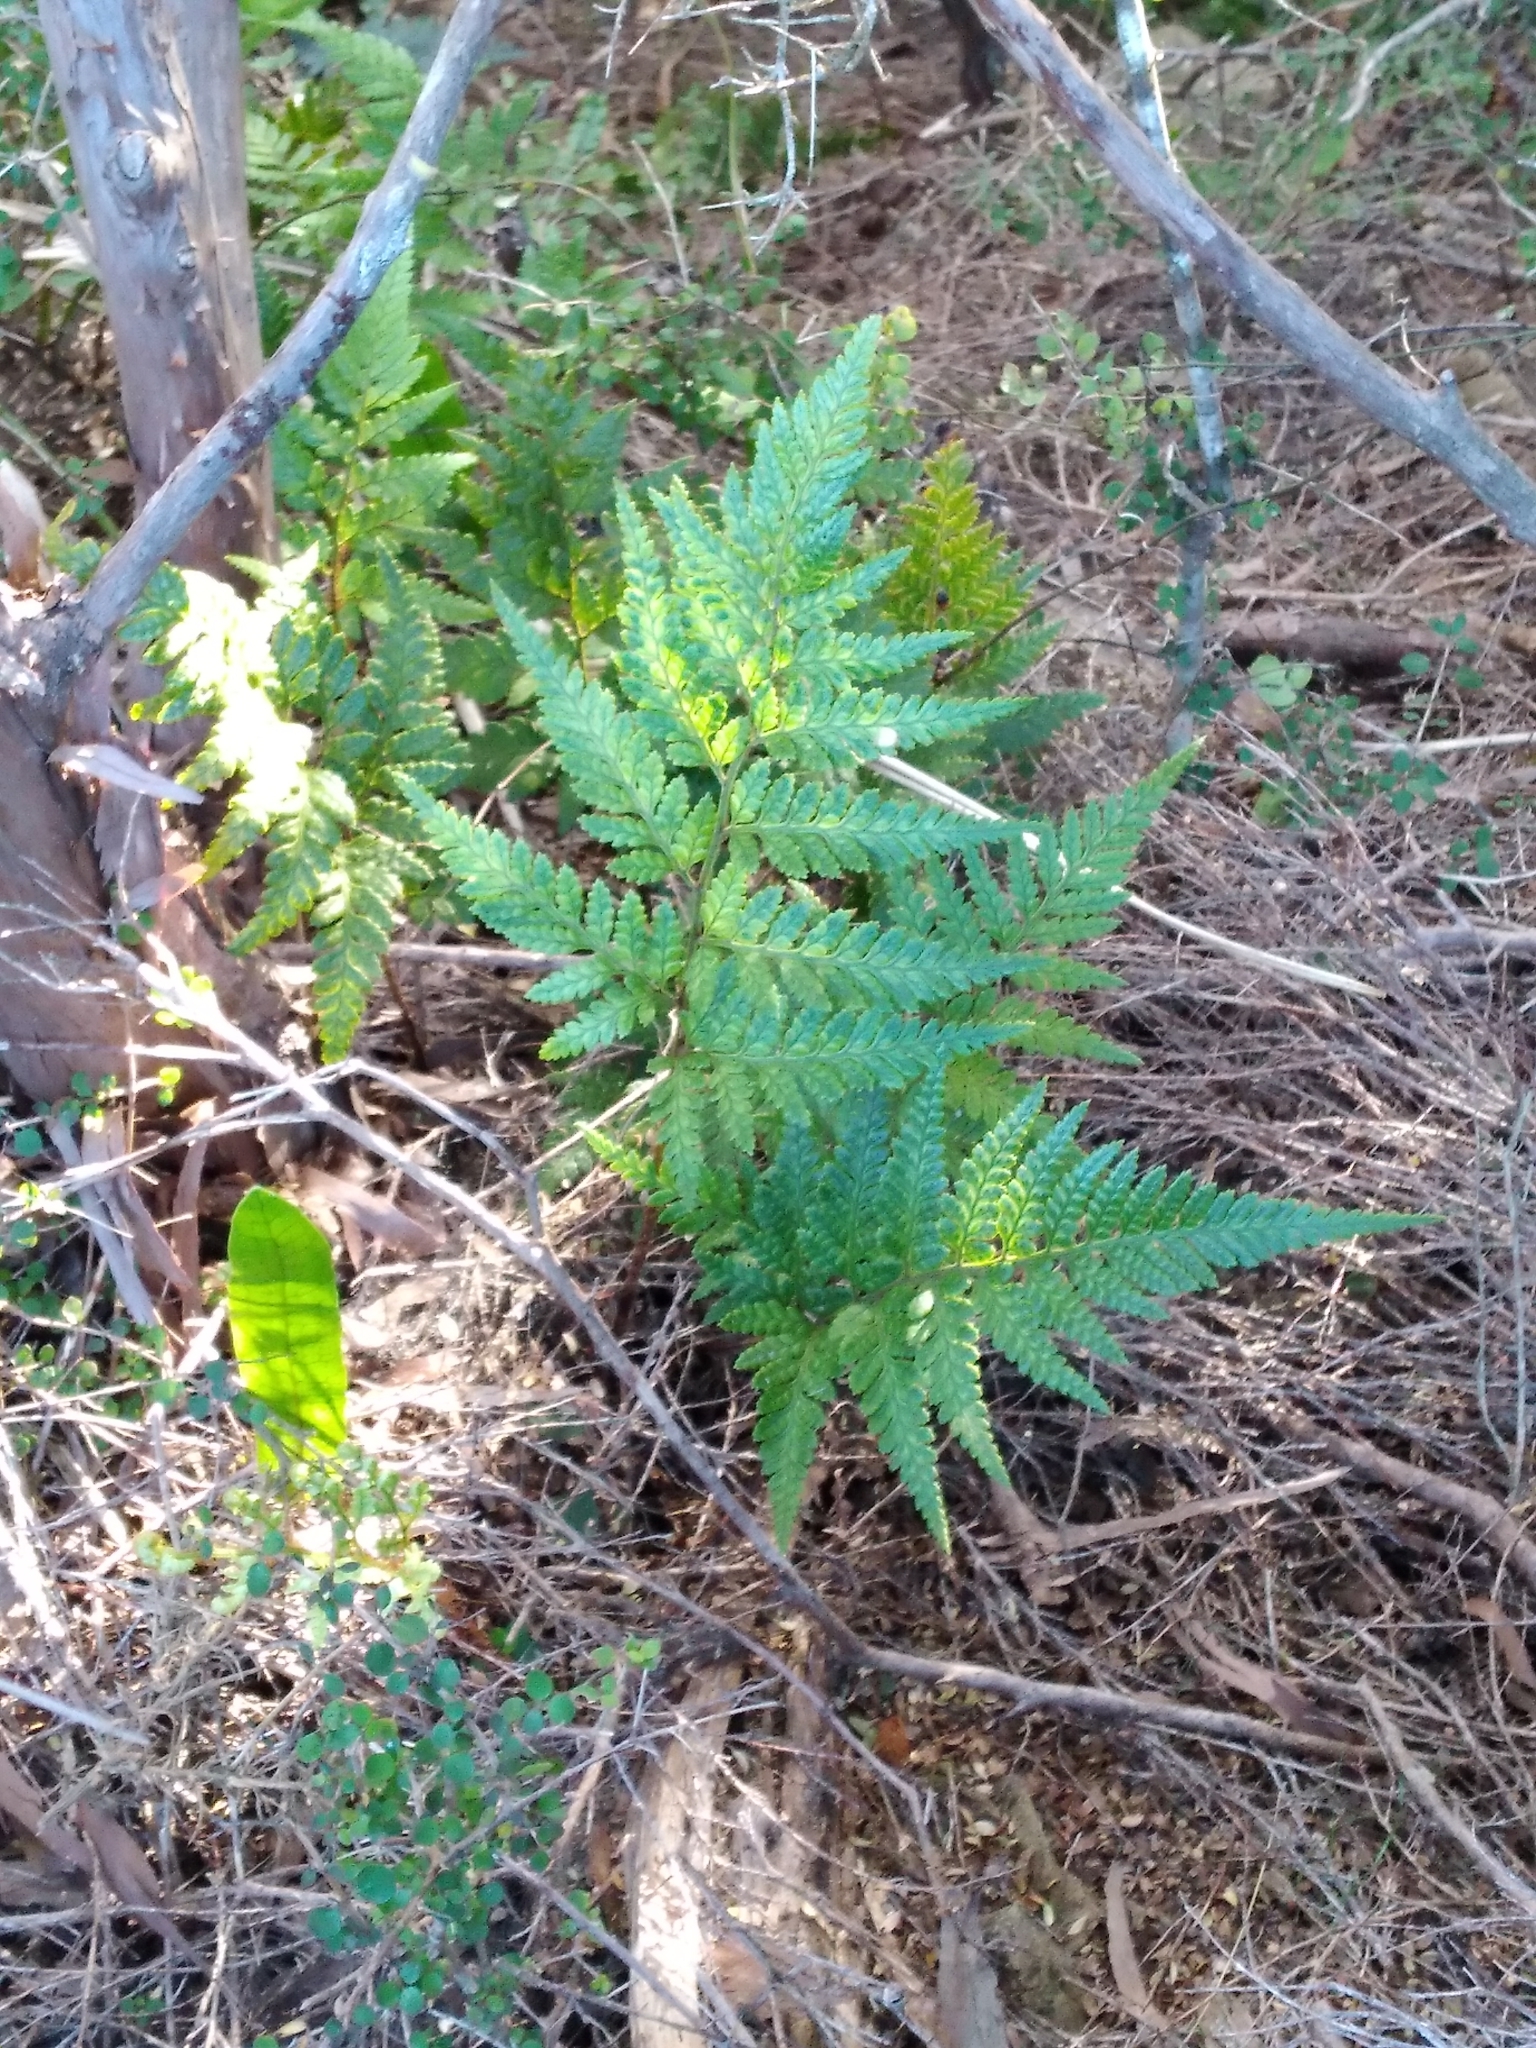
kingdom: Plantae
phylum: Tracheophyta
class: Polypodiopsida
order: Polypodiales
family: Dryopteridaceae
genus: Rumohra
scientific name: Rumohra adiantiformis
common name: Leather fern
